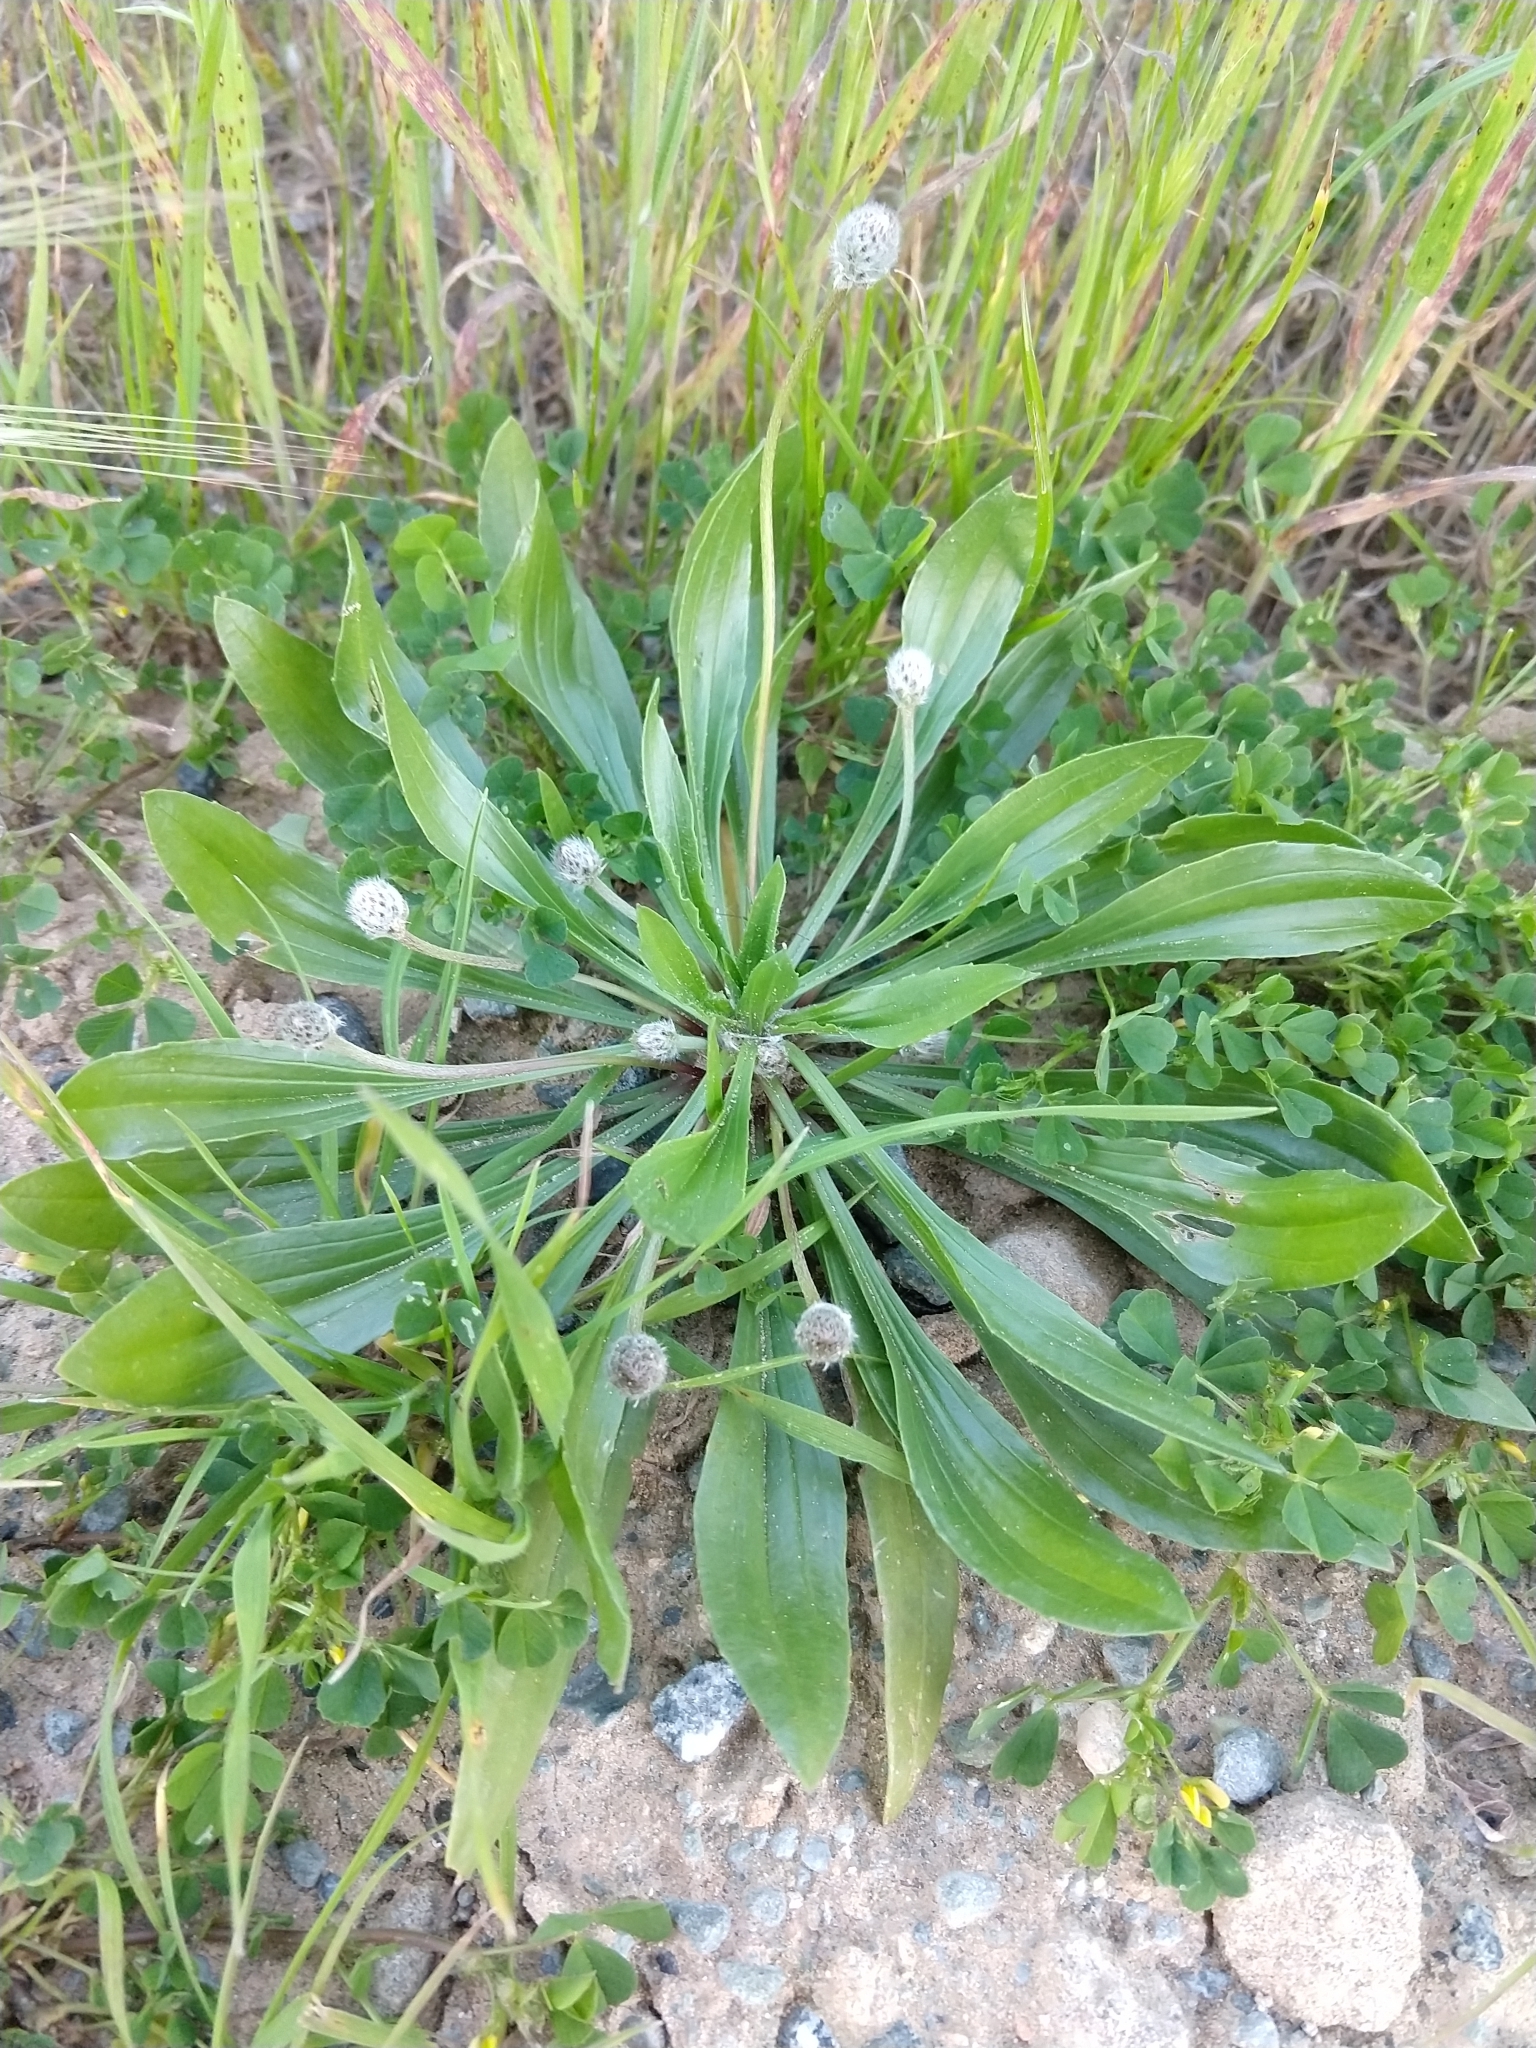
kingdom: Plantae
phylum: Tracheophyta
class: Magnoliopsida
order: Lamiales
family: Plantaginaceae
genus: Plantago
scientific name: Plantago lanceolata
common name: Ribwort plantain
